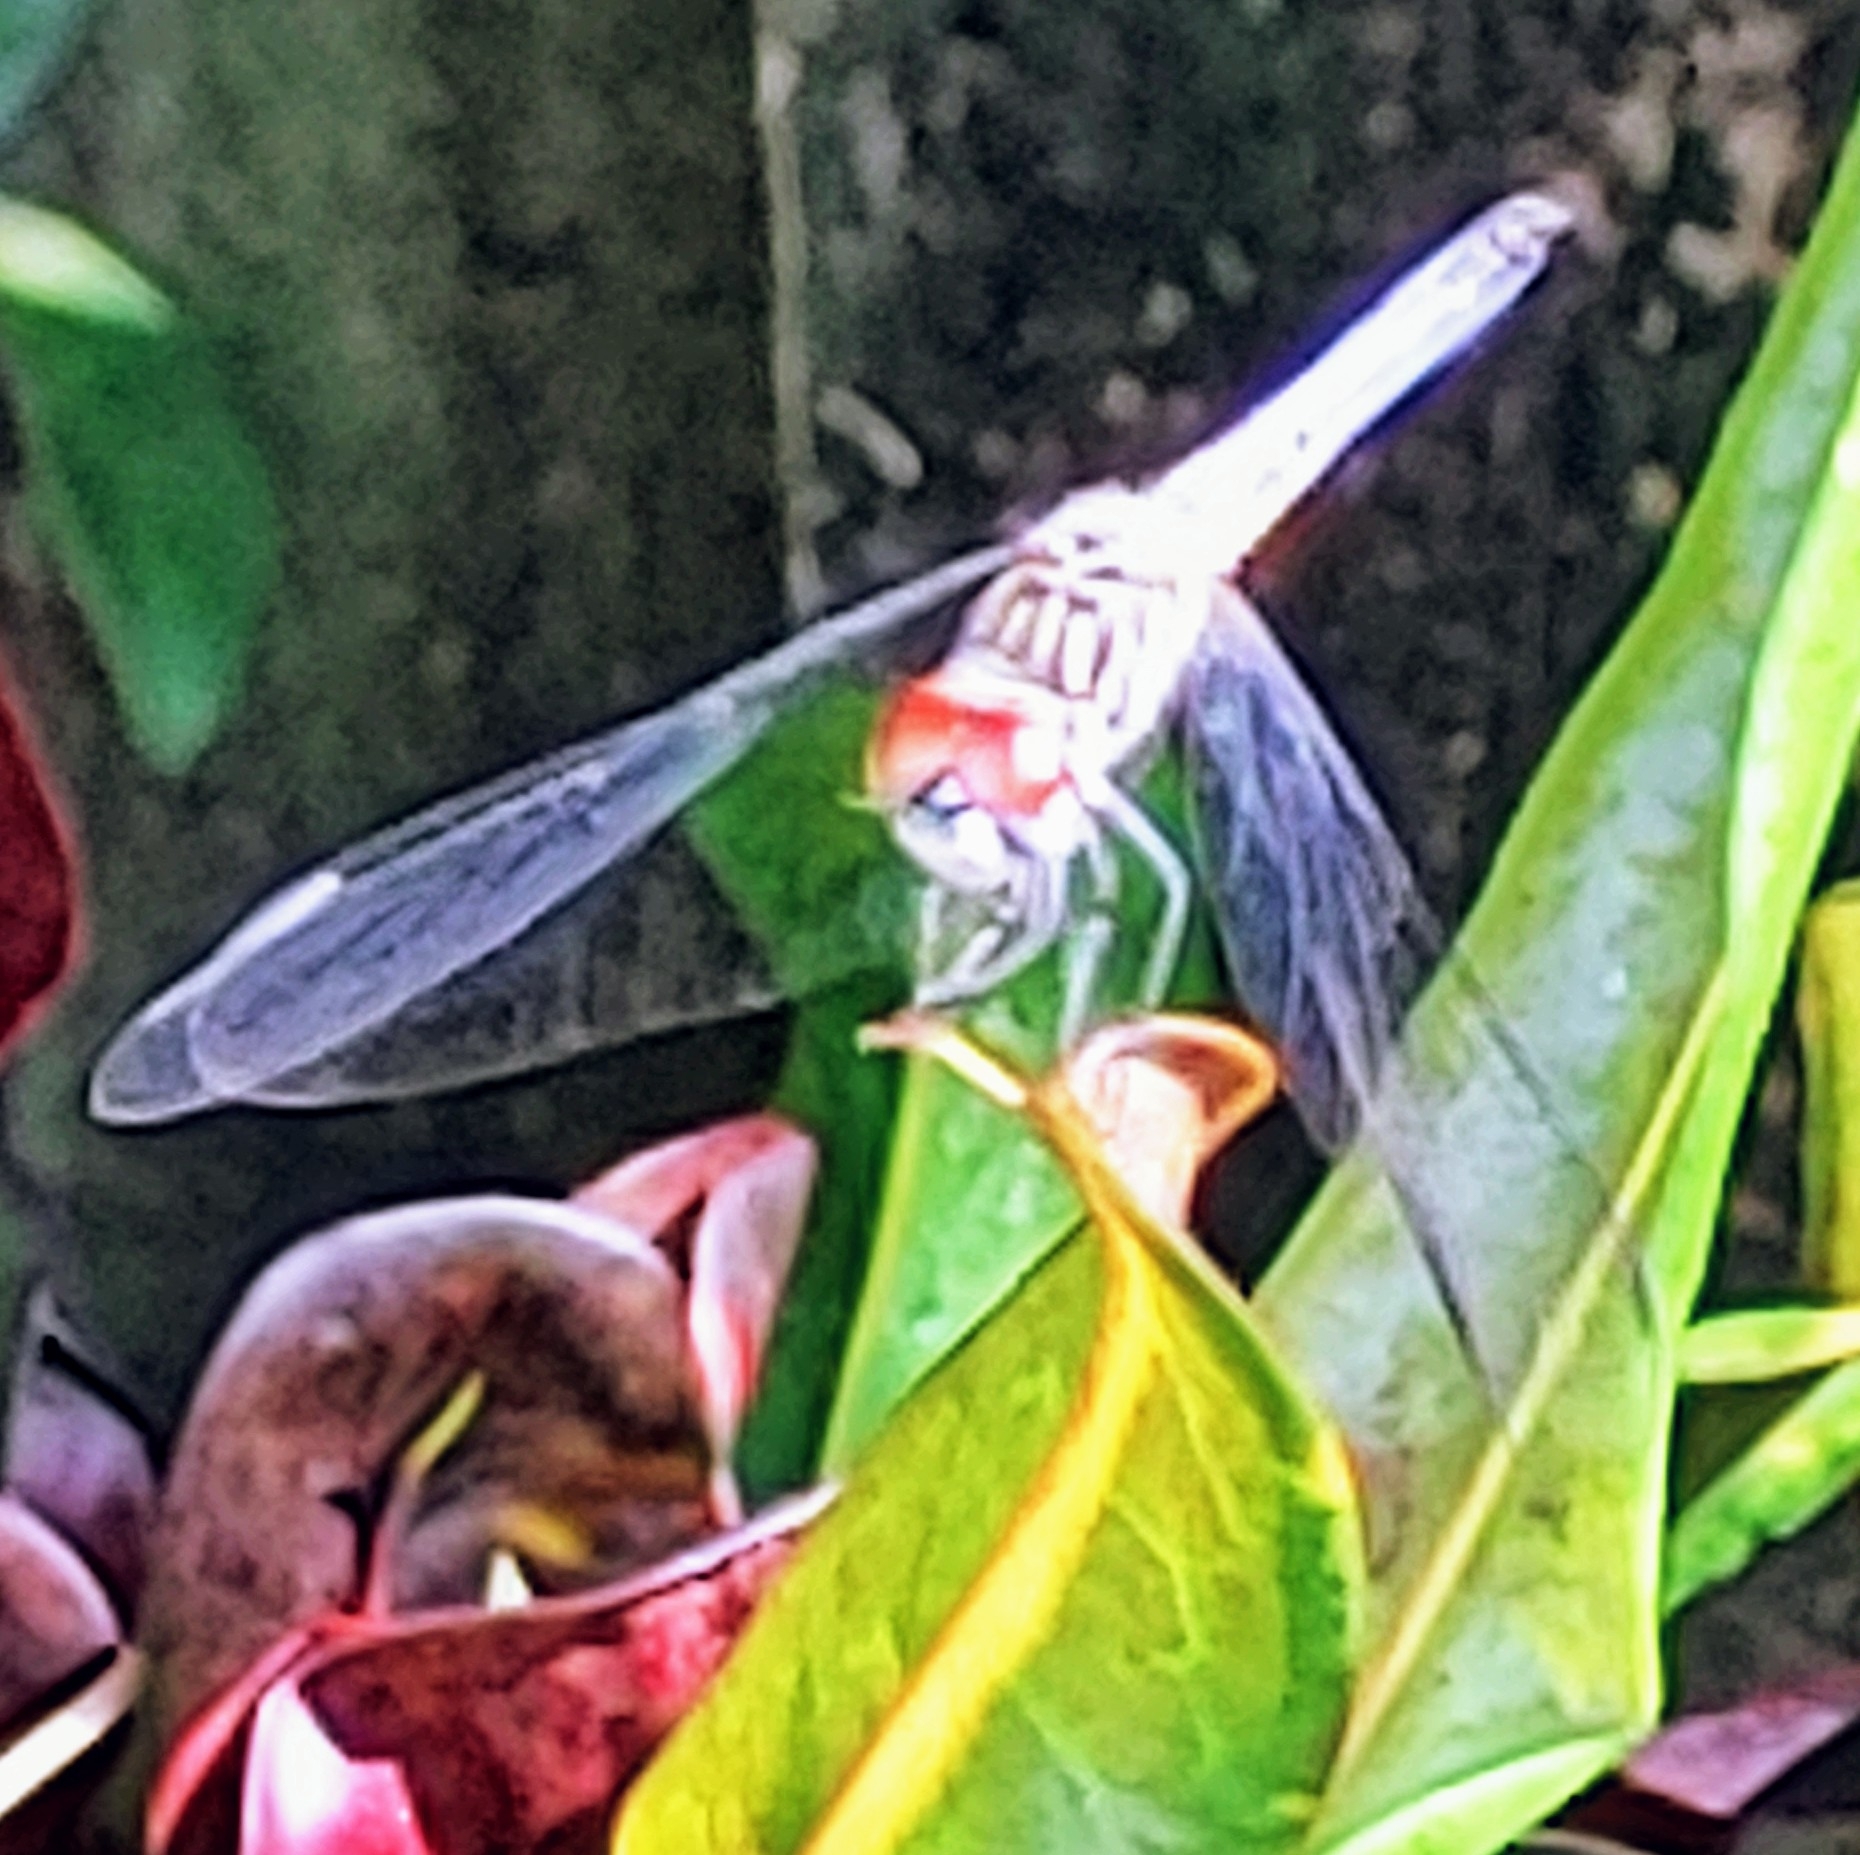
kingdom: Animalia
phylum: Arthropoda
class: Insecta
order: Odonata
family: Libellulidae
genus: Pachydiplax
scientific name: Pachydiplax longipennis
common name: Blue dasher
